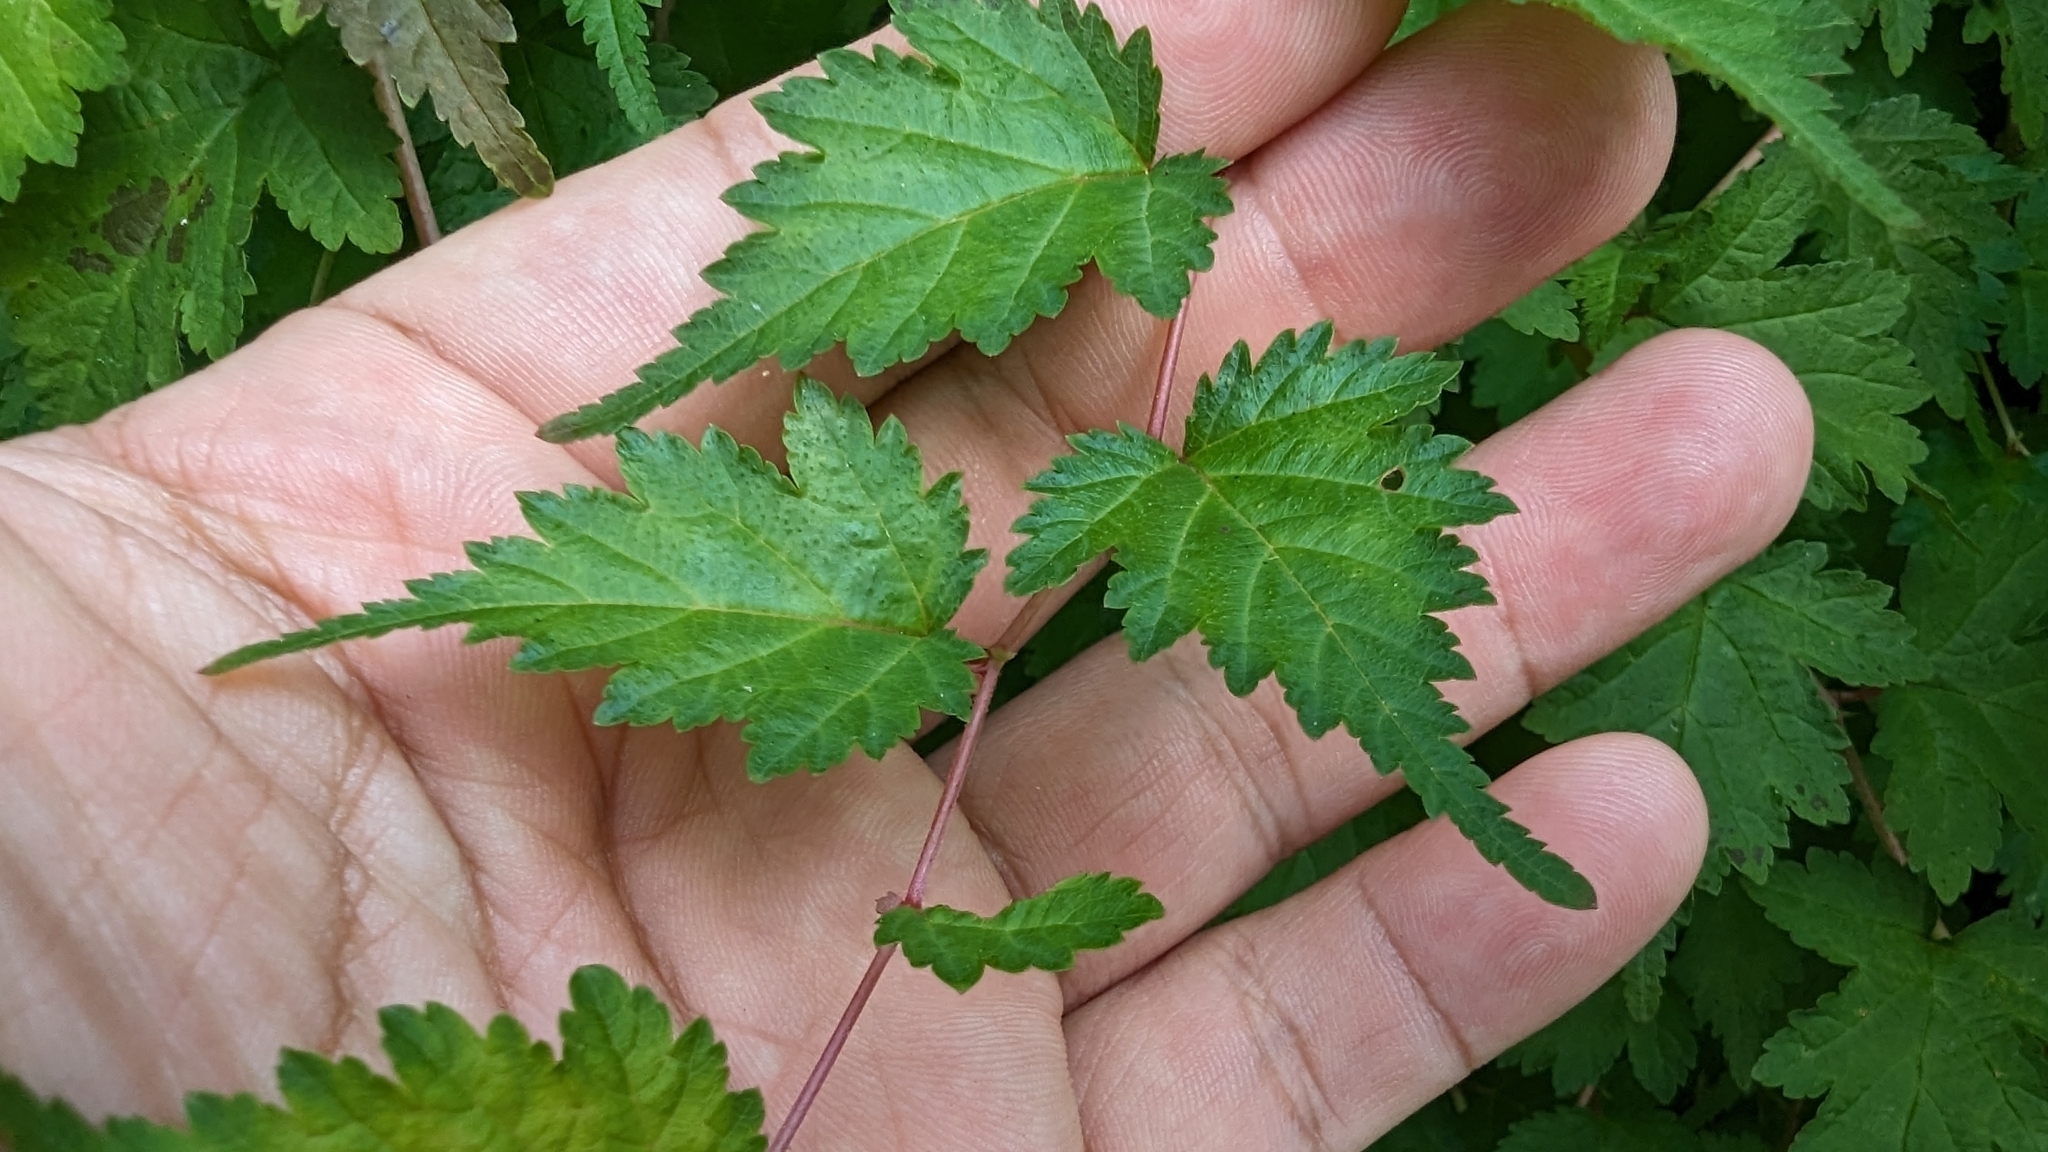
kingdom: Plantae
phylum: Tracheophyta
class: Magnoliopsida
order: Rosales
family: Rosaceae
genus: Neillia
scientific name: Neillia incisa
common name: Laceshrub
